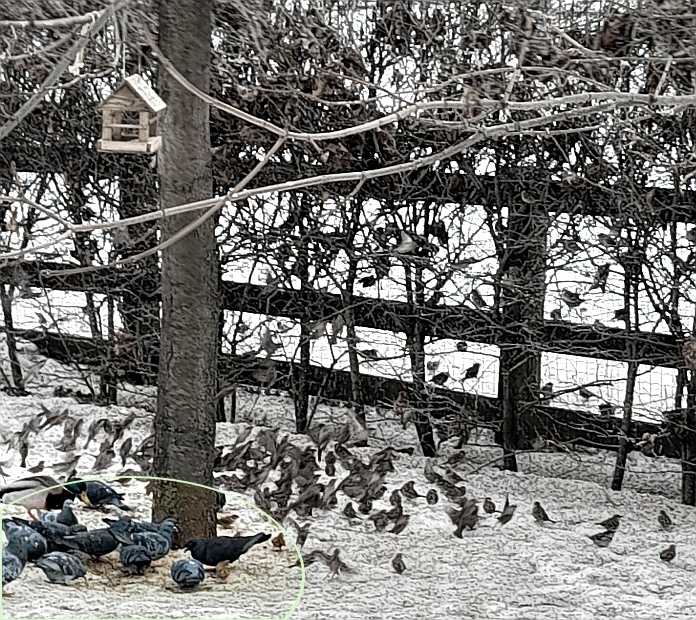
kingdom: Animalia
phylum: Chordata
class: Aves
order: Columbiformes
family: Columbidae
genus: Columba
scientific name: Columba livia
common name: Rock pigeon
